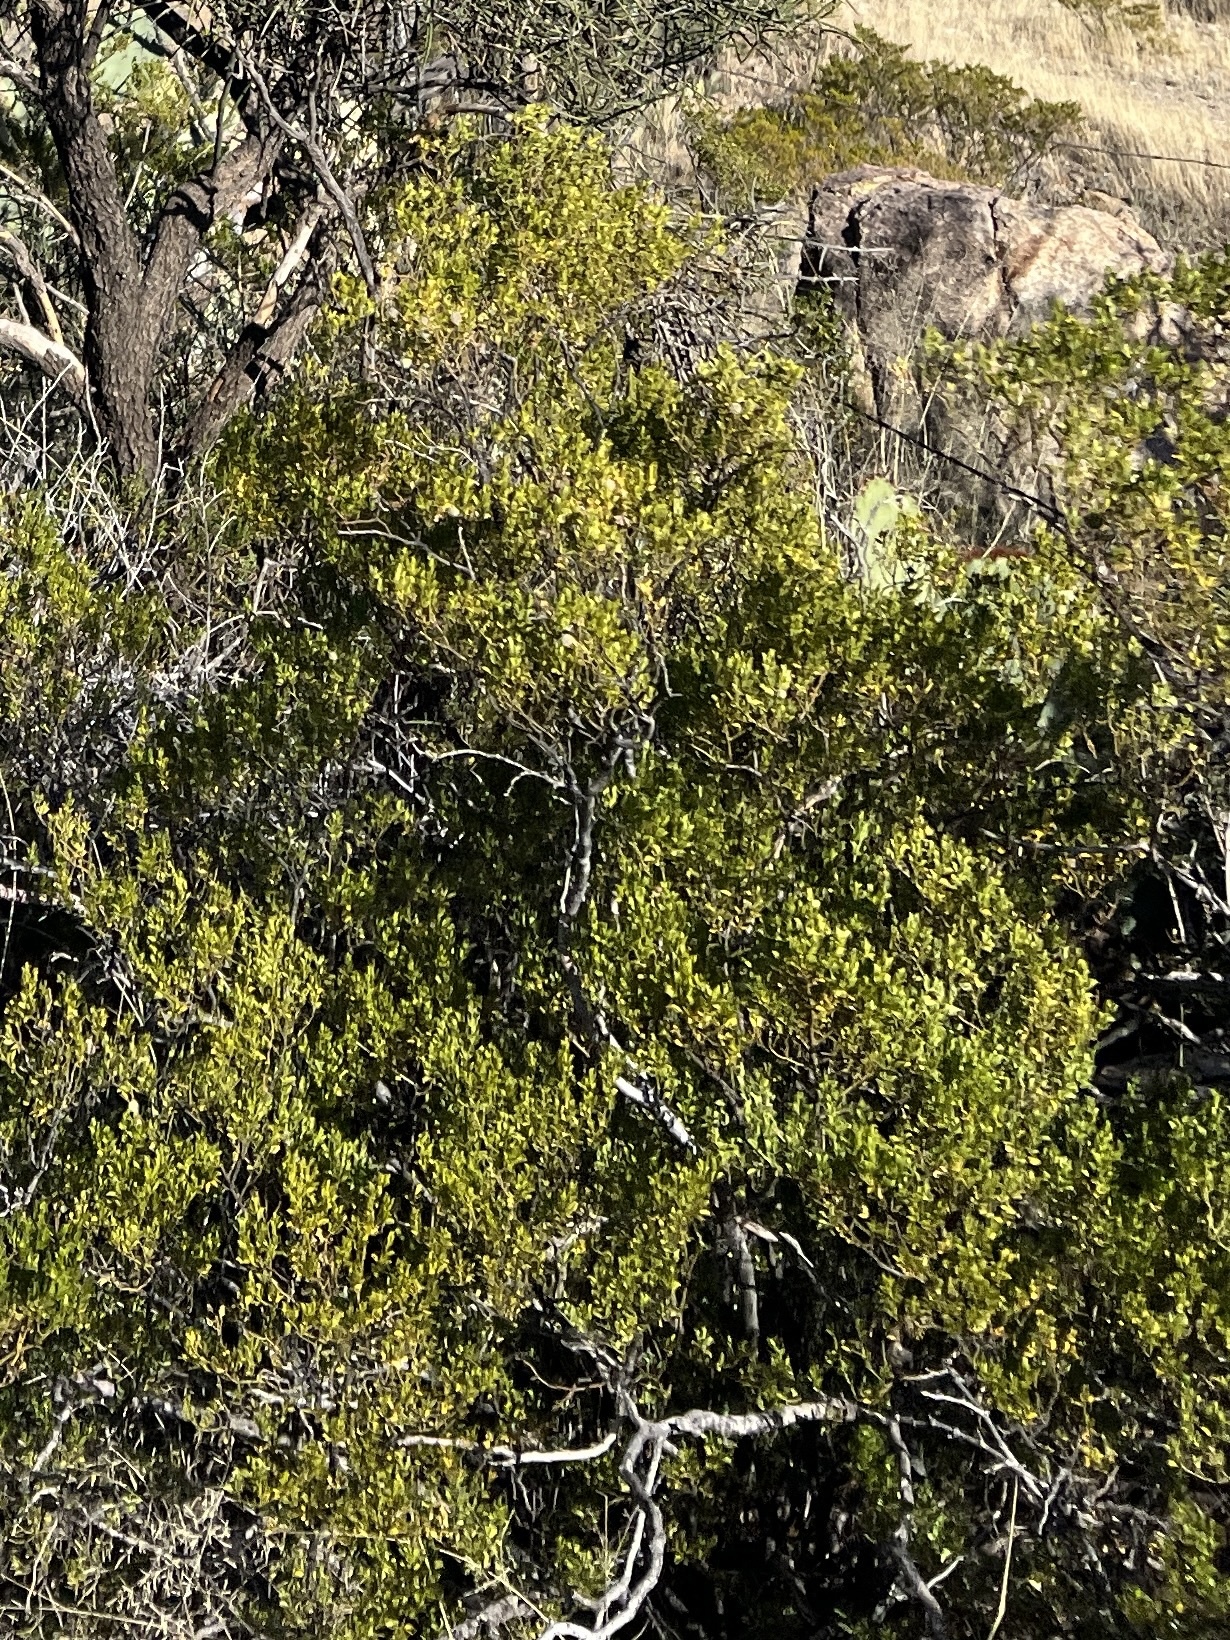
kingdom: Plantae
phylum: Tracheophyta
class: Magnoliopsida
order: Zygophyllales
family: Zygophyllaceae
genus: Larrea
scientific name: Larrea tridentata
